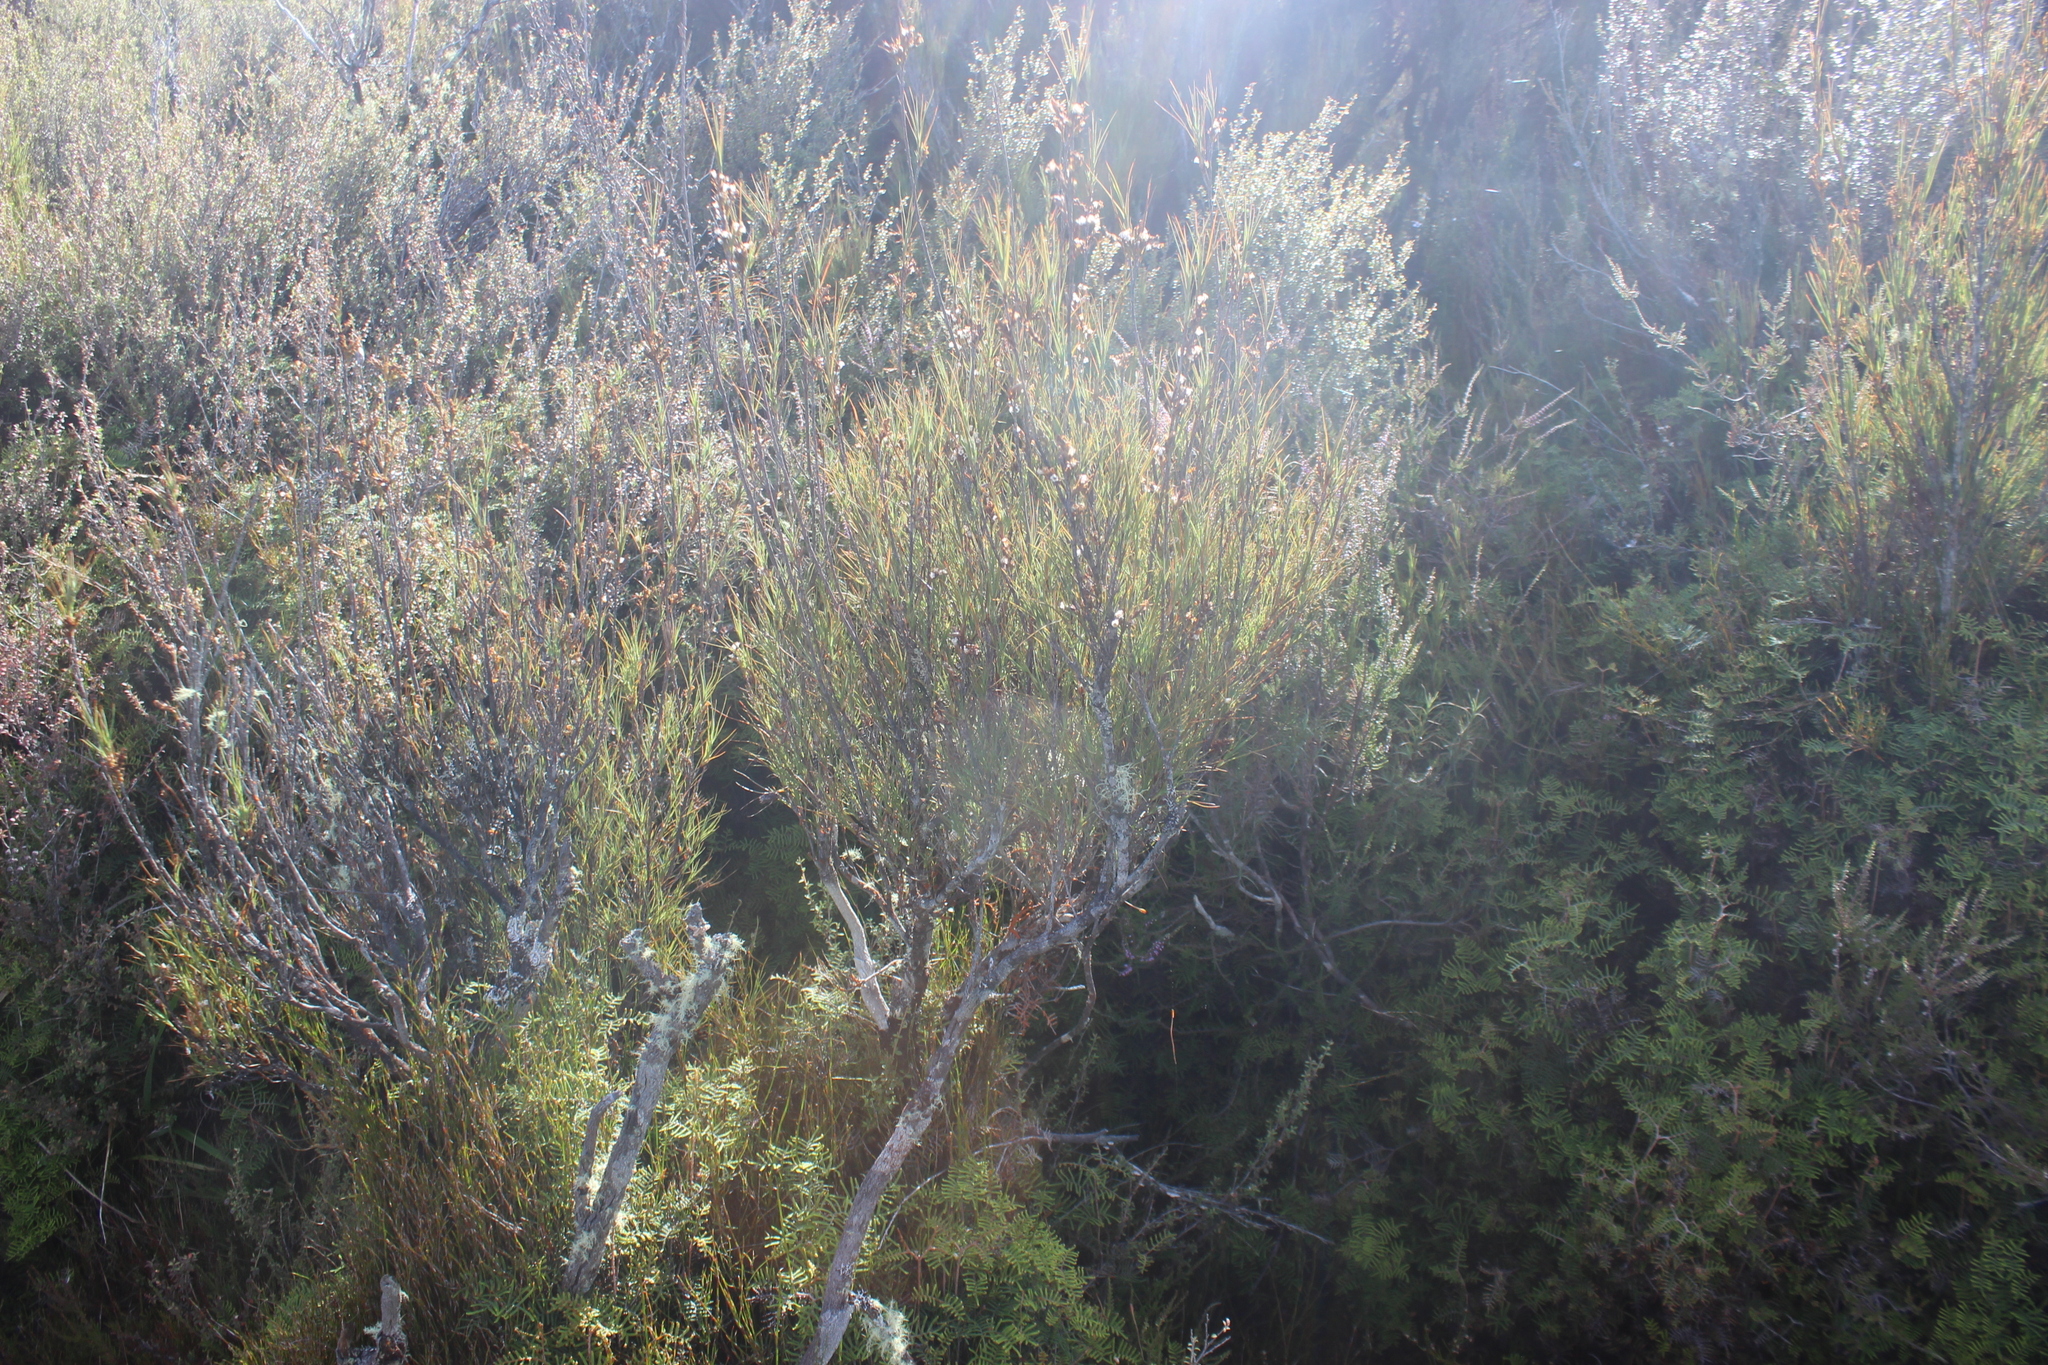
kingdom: Plantae
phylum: Tracheophyta
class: Magnoliopsida
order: Ericales
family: Ericaceae
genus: Dracophyllum
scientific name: Dracophyllum subulatum
